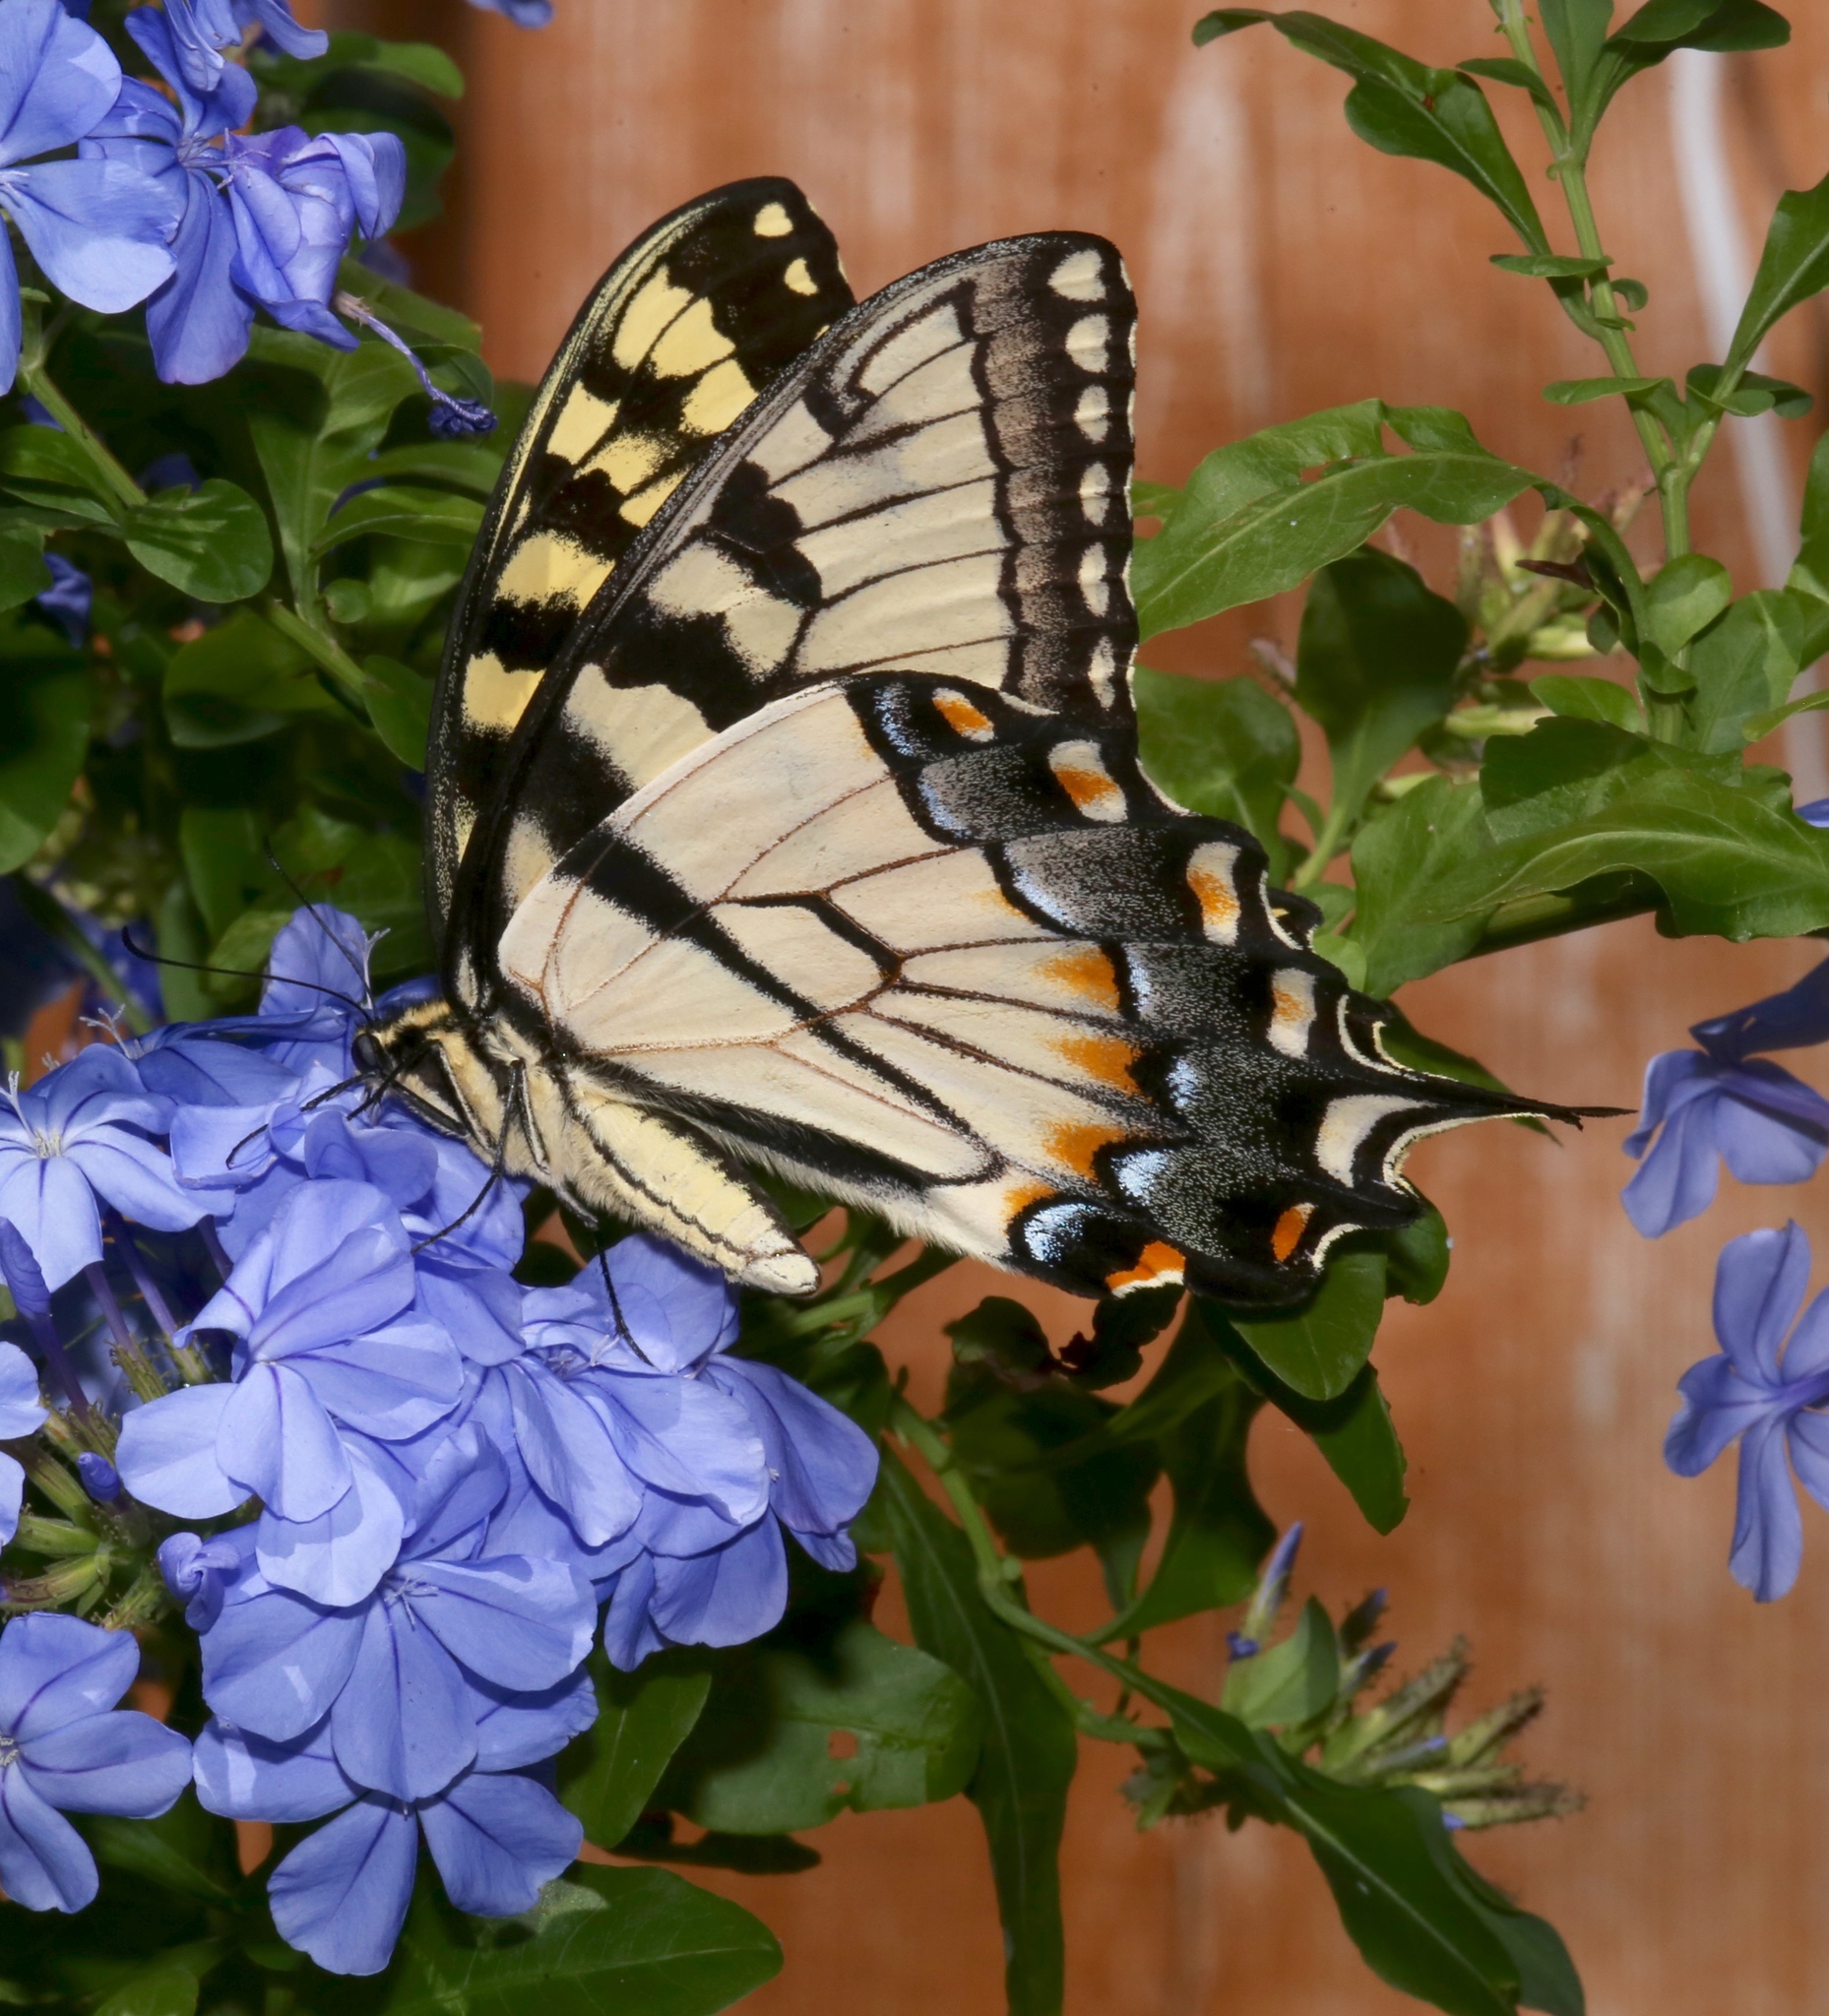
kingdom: Animalia
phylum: Arthropoda
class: Insecta
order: Lepidoptera
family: Papilionidae
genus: Papilio
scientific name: Papilio glaucus
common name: Tiger swallowtail
